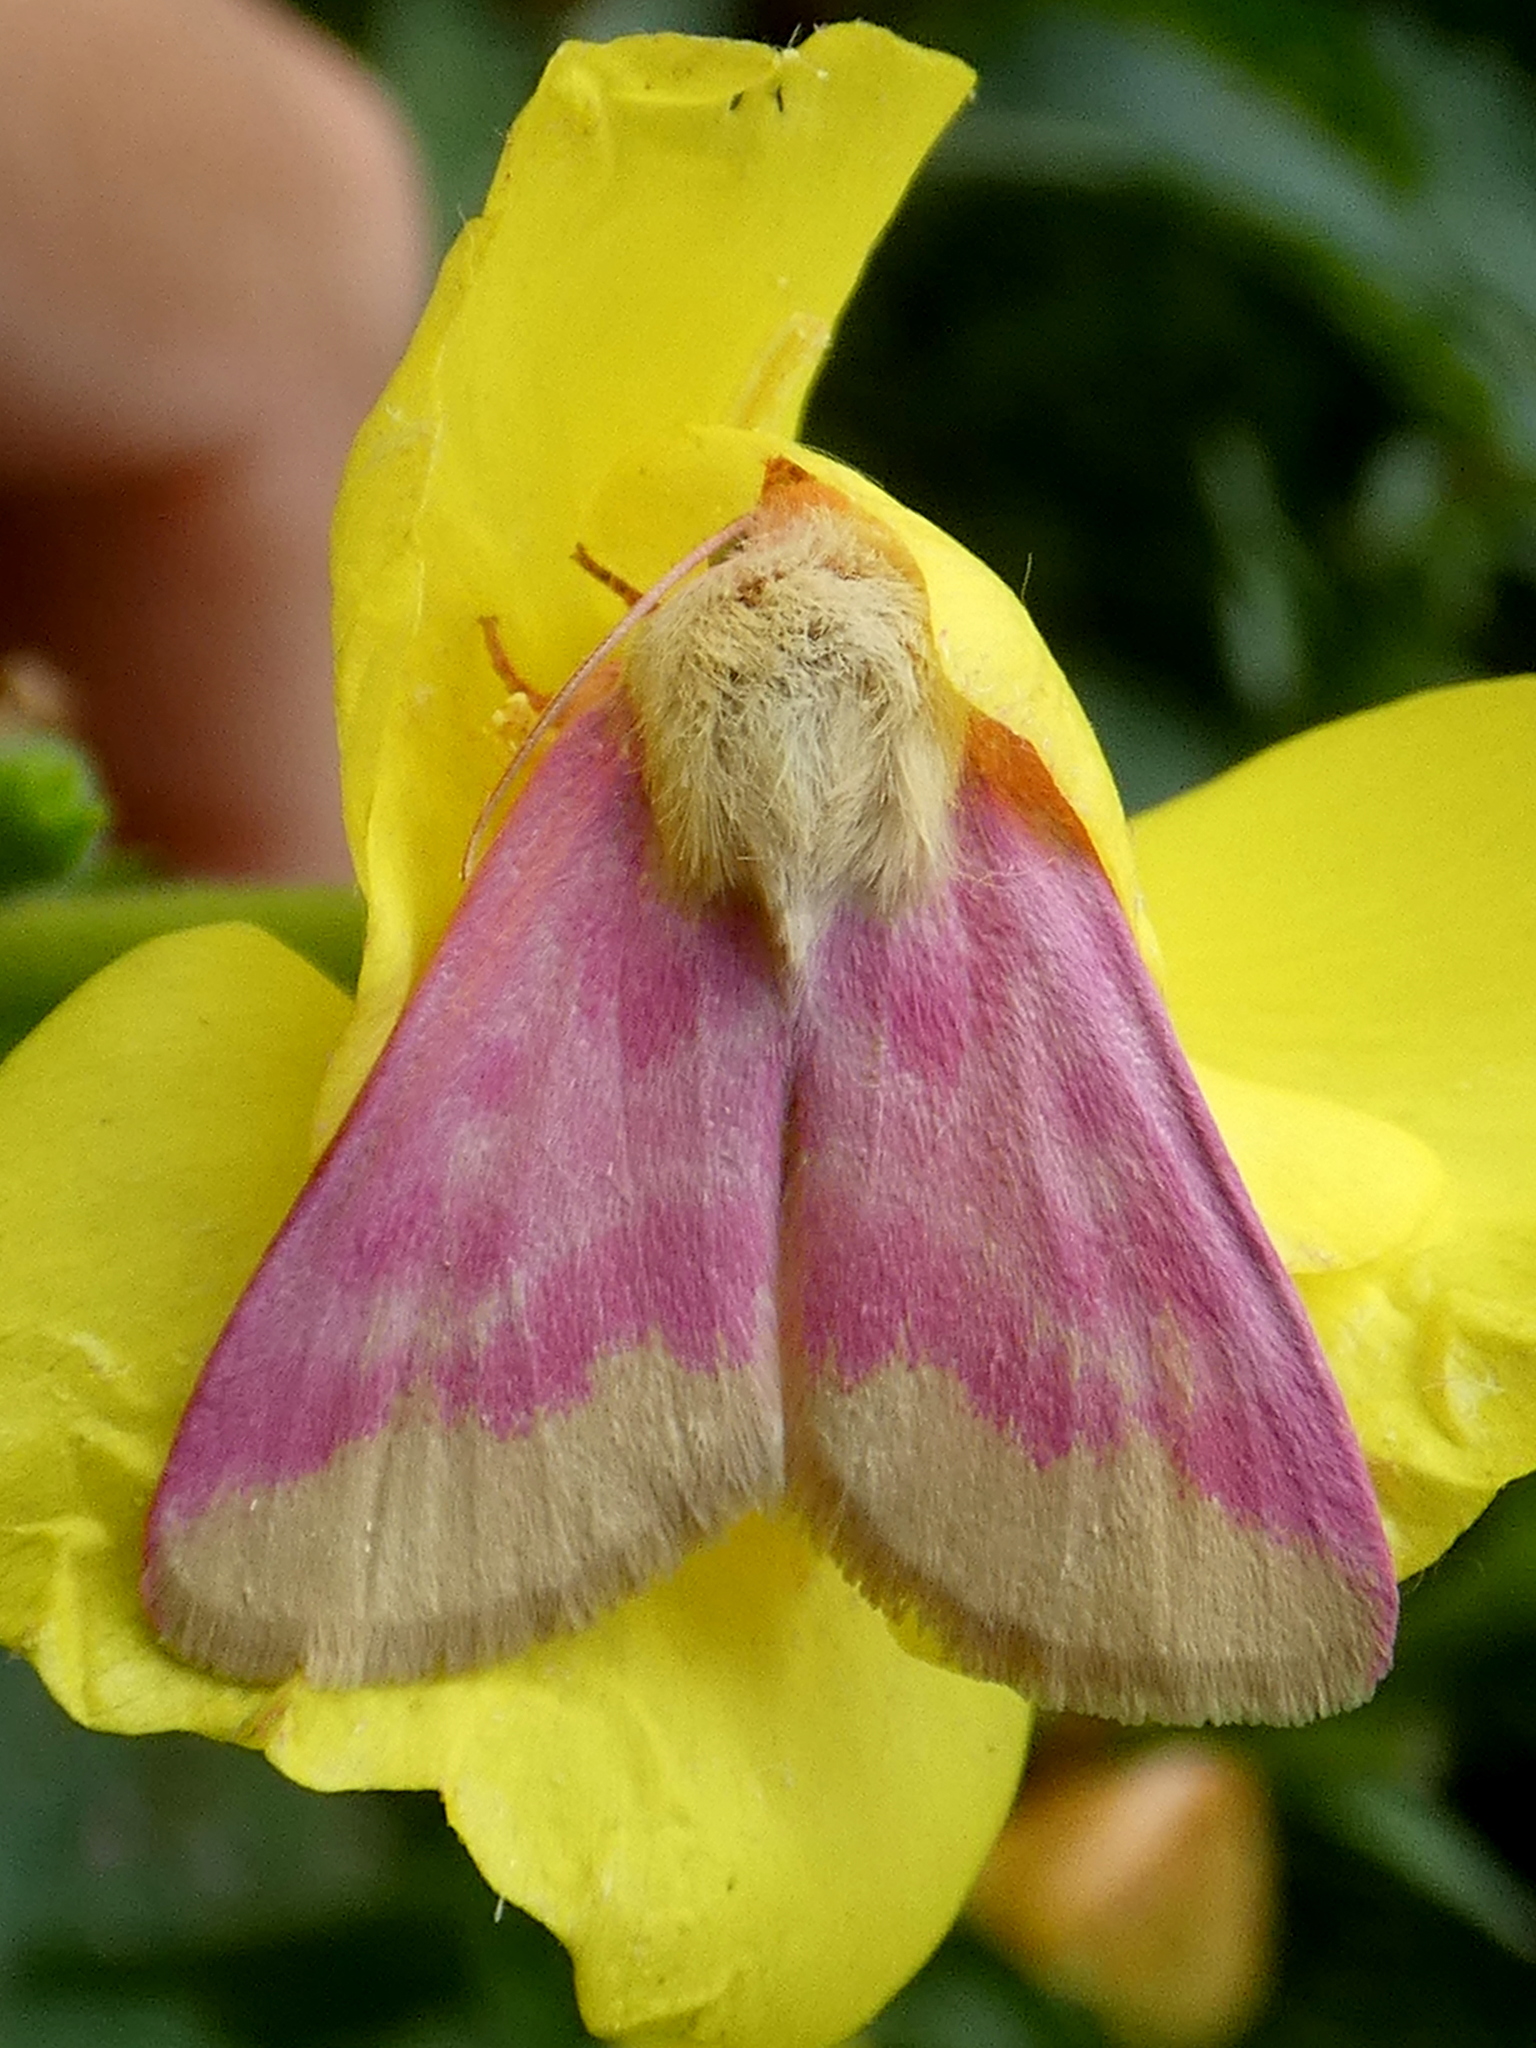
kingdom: Animalia
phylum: Arthropoda
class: Insecta
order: Lepidoptera
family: Noctuidae
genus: Schinia
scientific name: Schinia florida
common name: Primrose moth
